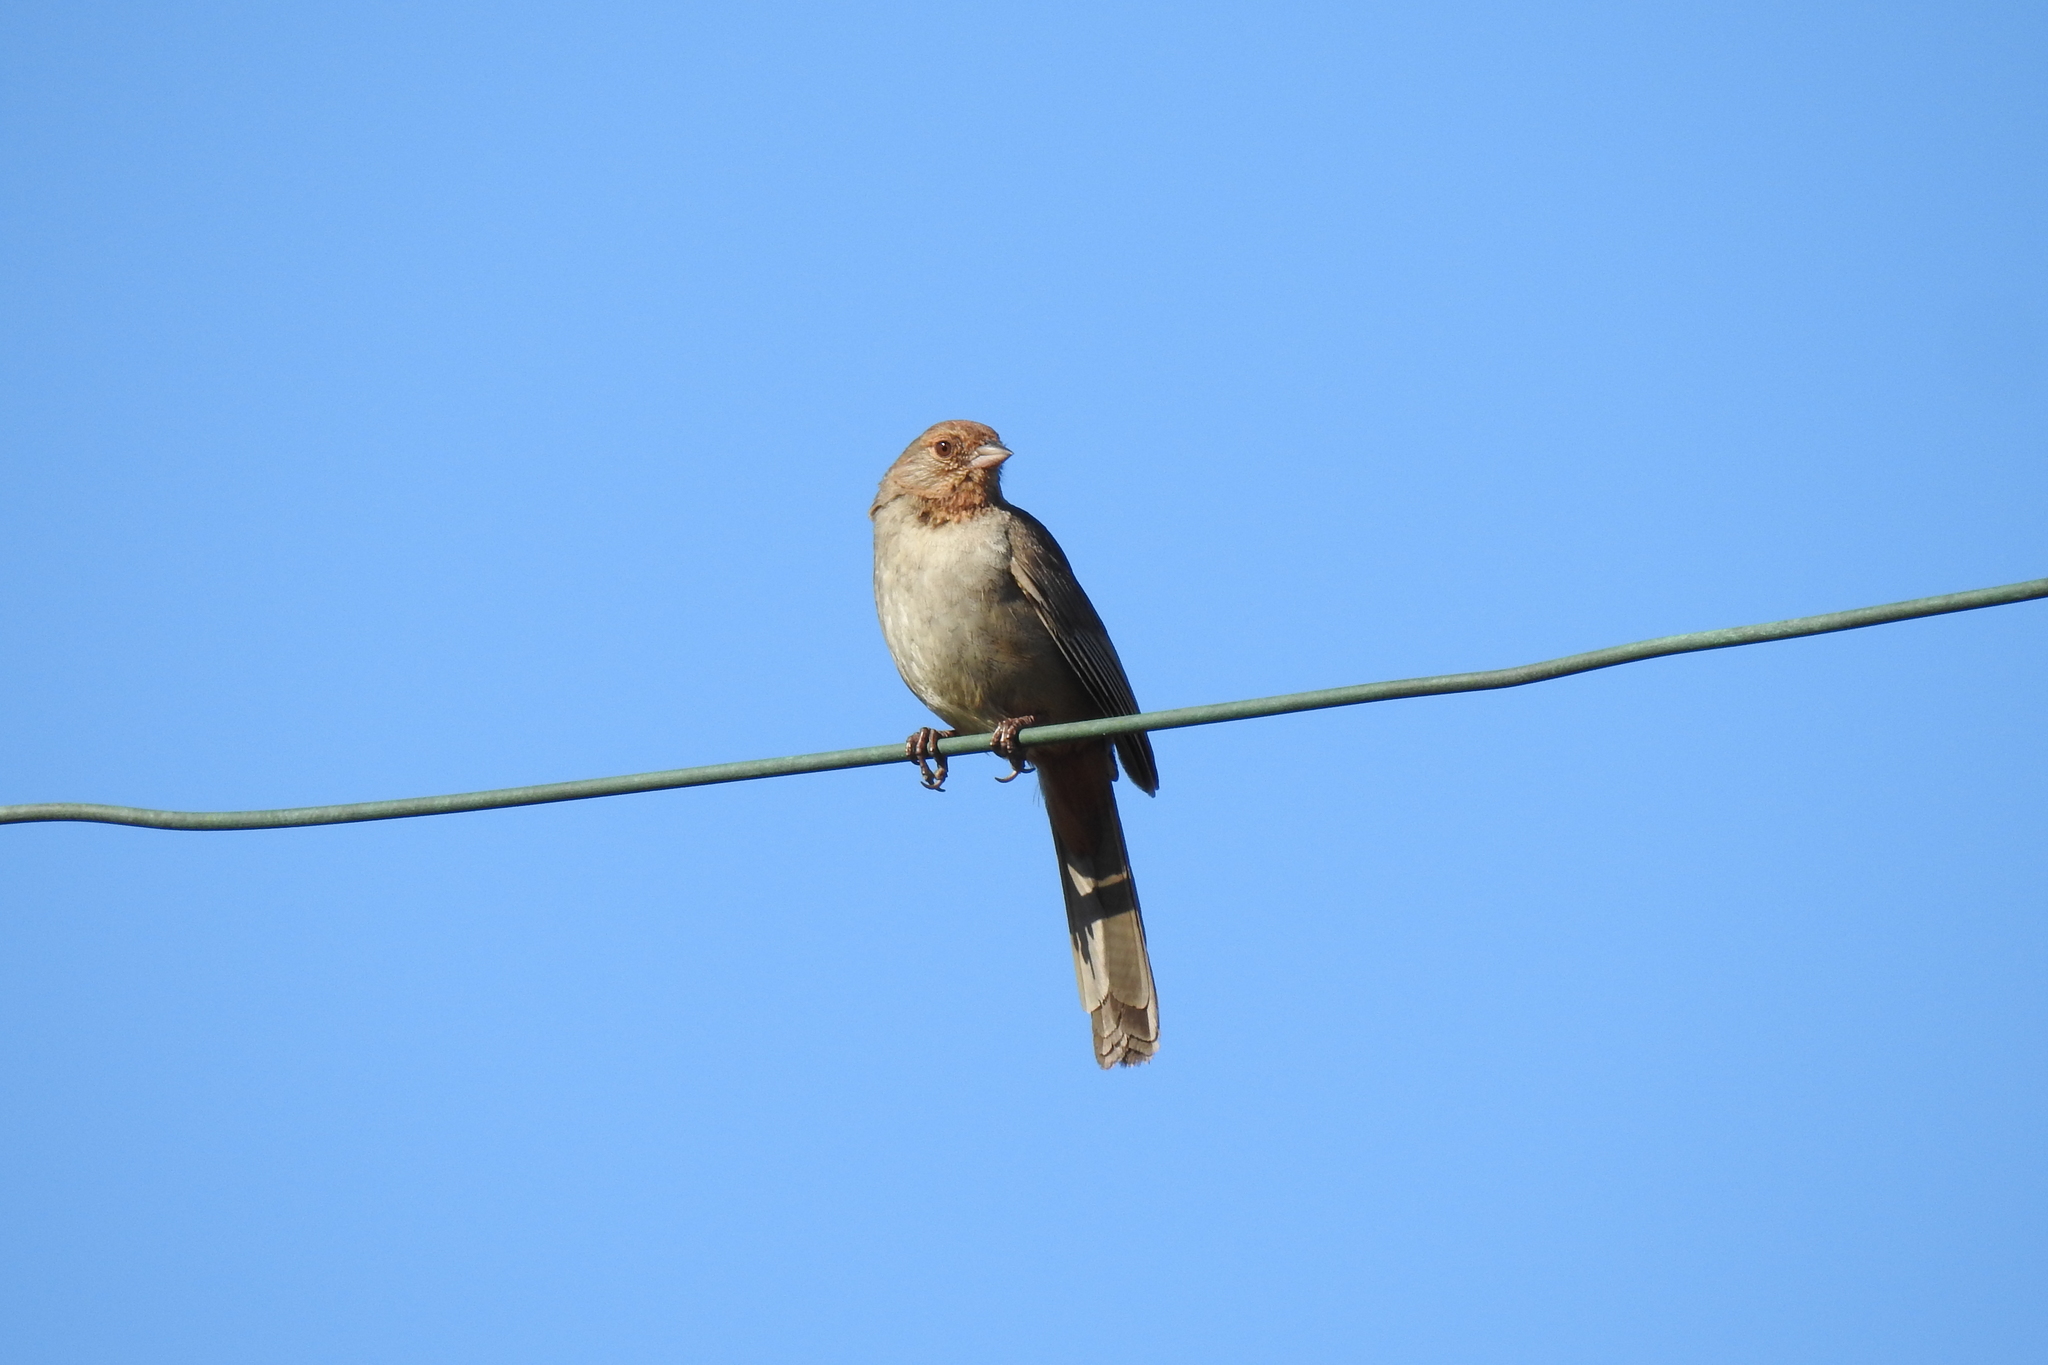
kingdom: Animalia
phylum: Chordata
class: Aves
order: Passeriformes
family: Passerellidae
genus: Melozone
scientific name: Melozone crissalis
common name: California towhee
